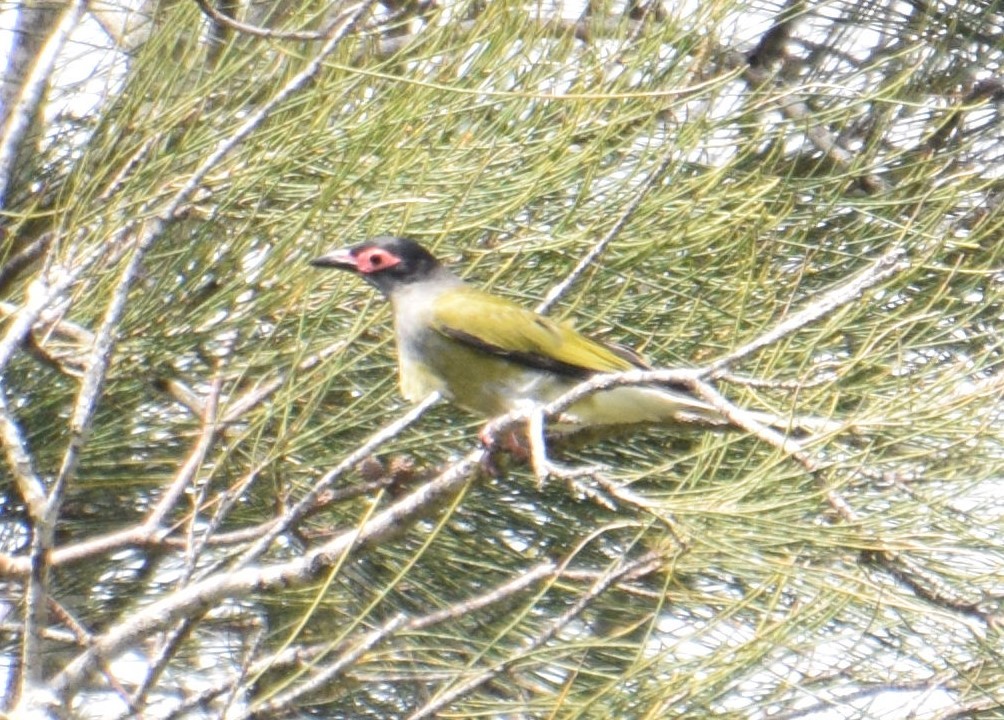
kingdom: Animalia
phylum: Chordata
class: Aves
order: Passeriformes
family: Oriolidae
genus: Sphecotheres
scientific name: Sphecotheres vieilloti
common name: Australasian figbird
